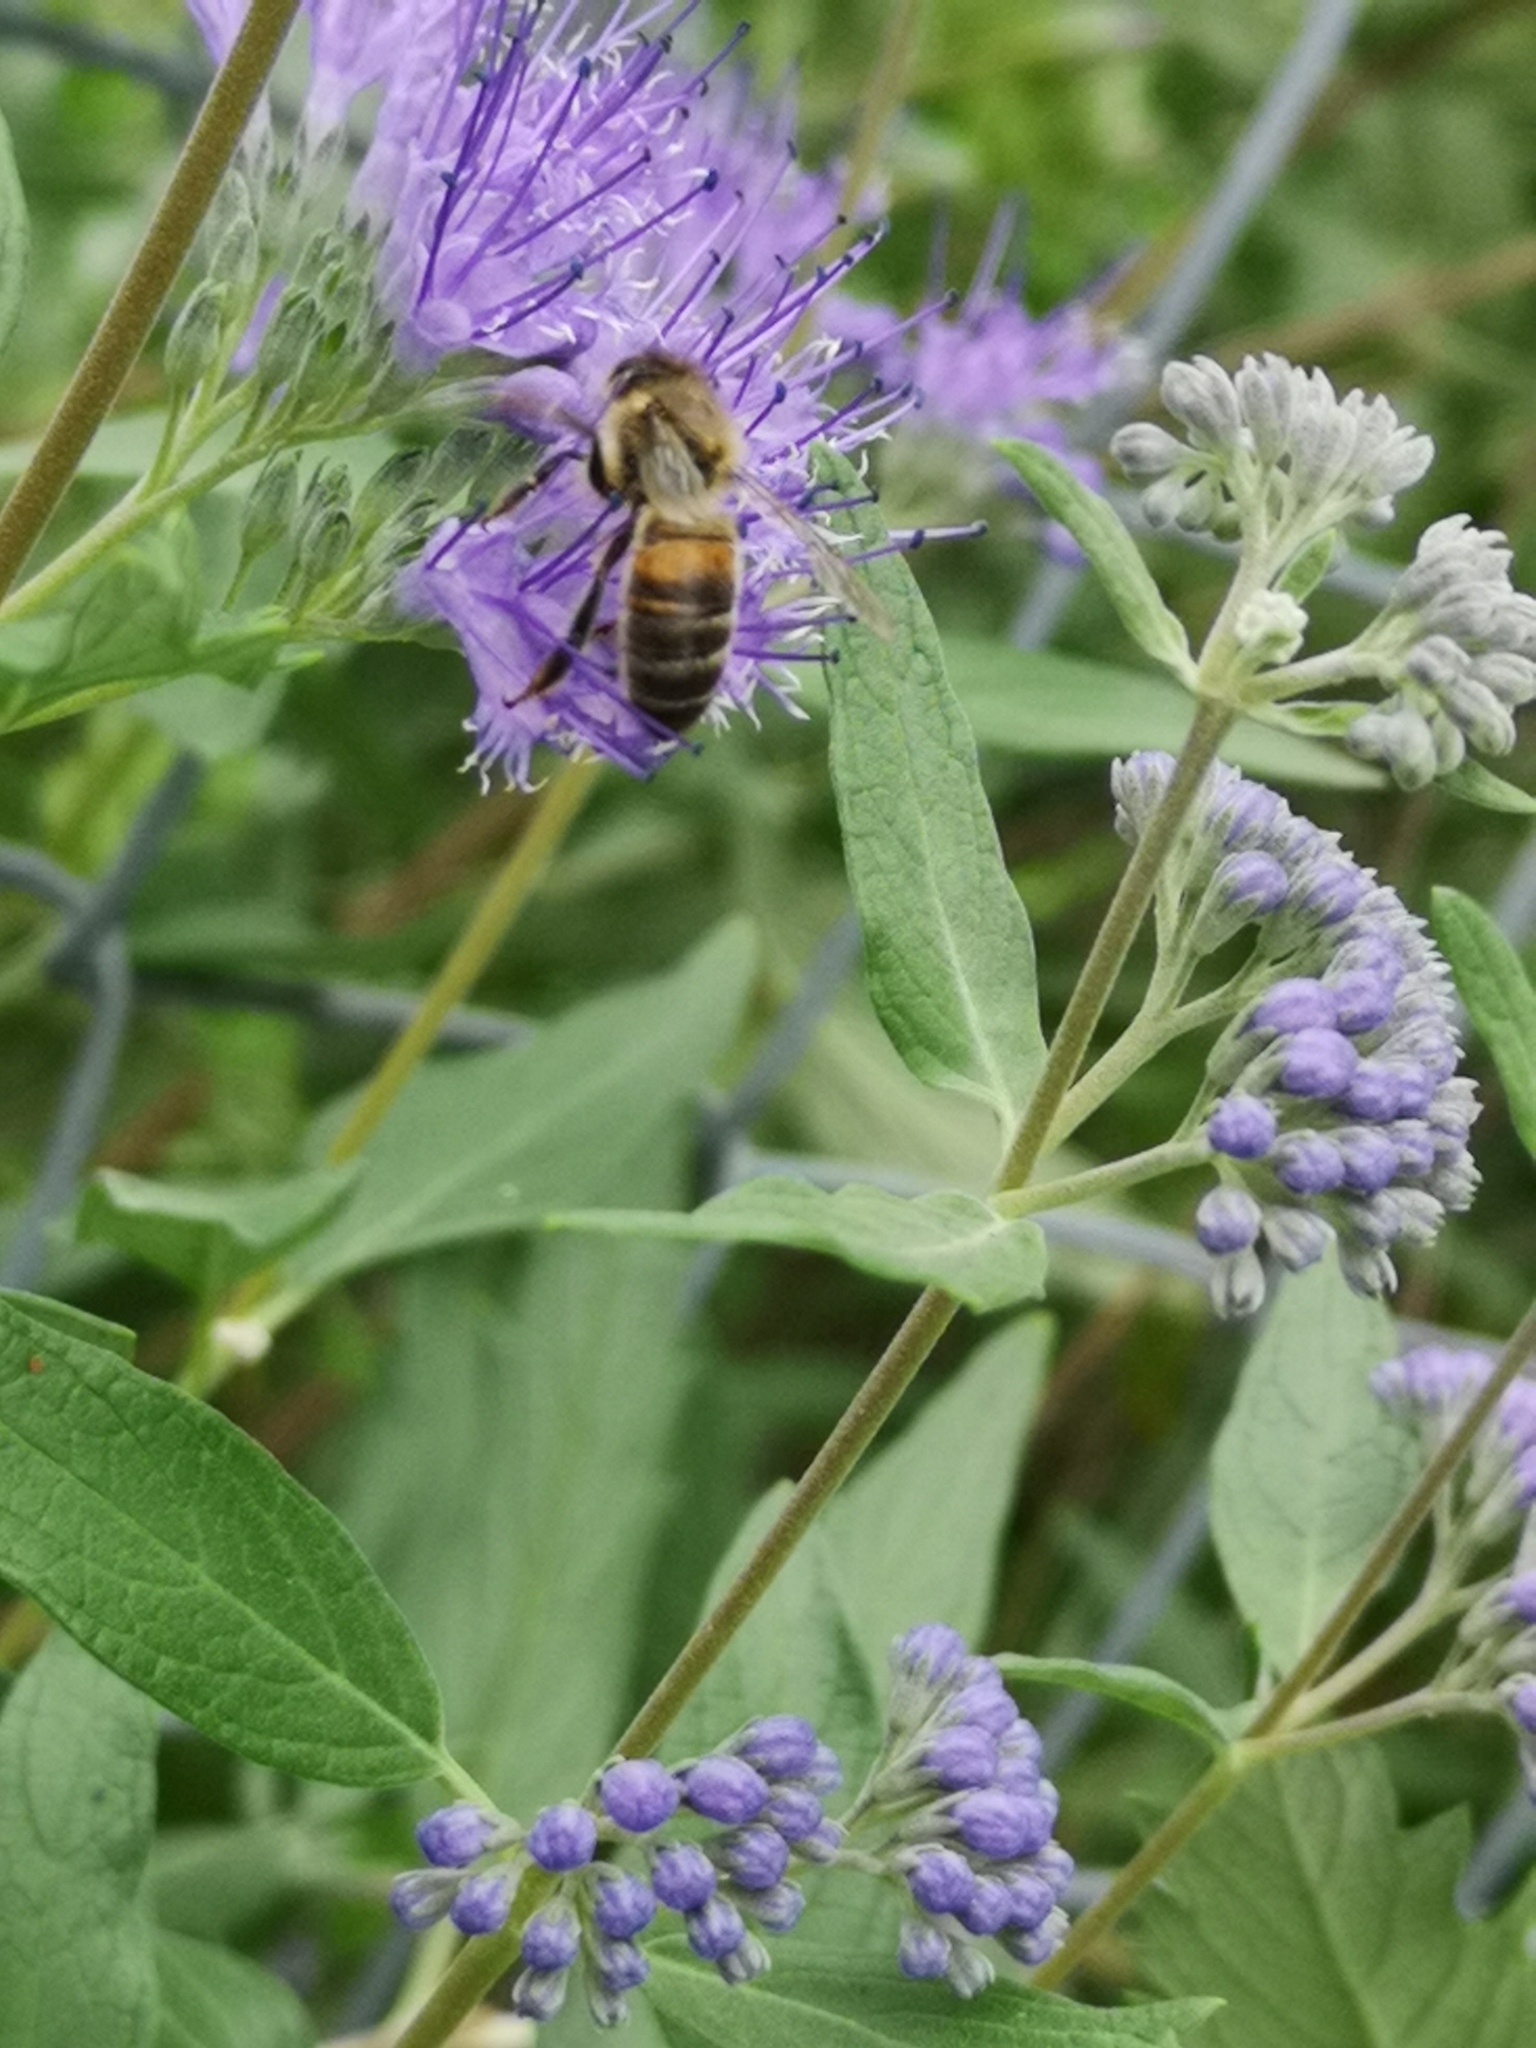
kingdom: Animalia
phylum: Arthropoda
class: Insecta
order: Hymenoptera
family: Apidae
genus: Apis
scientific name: Apis mellifera
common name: Honey bee
